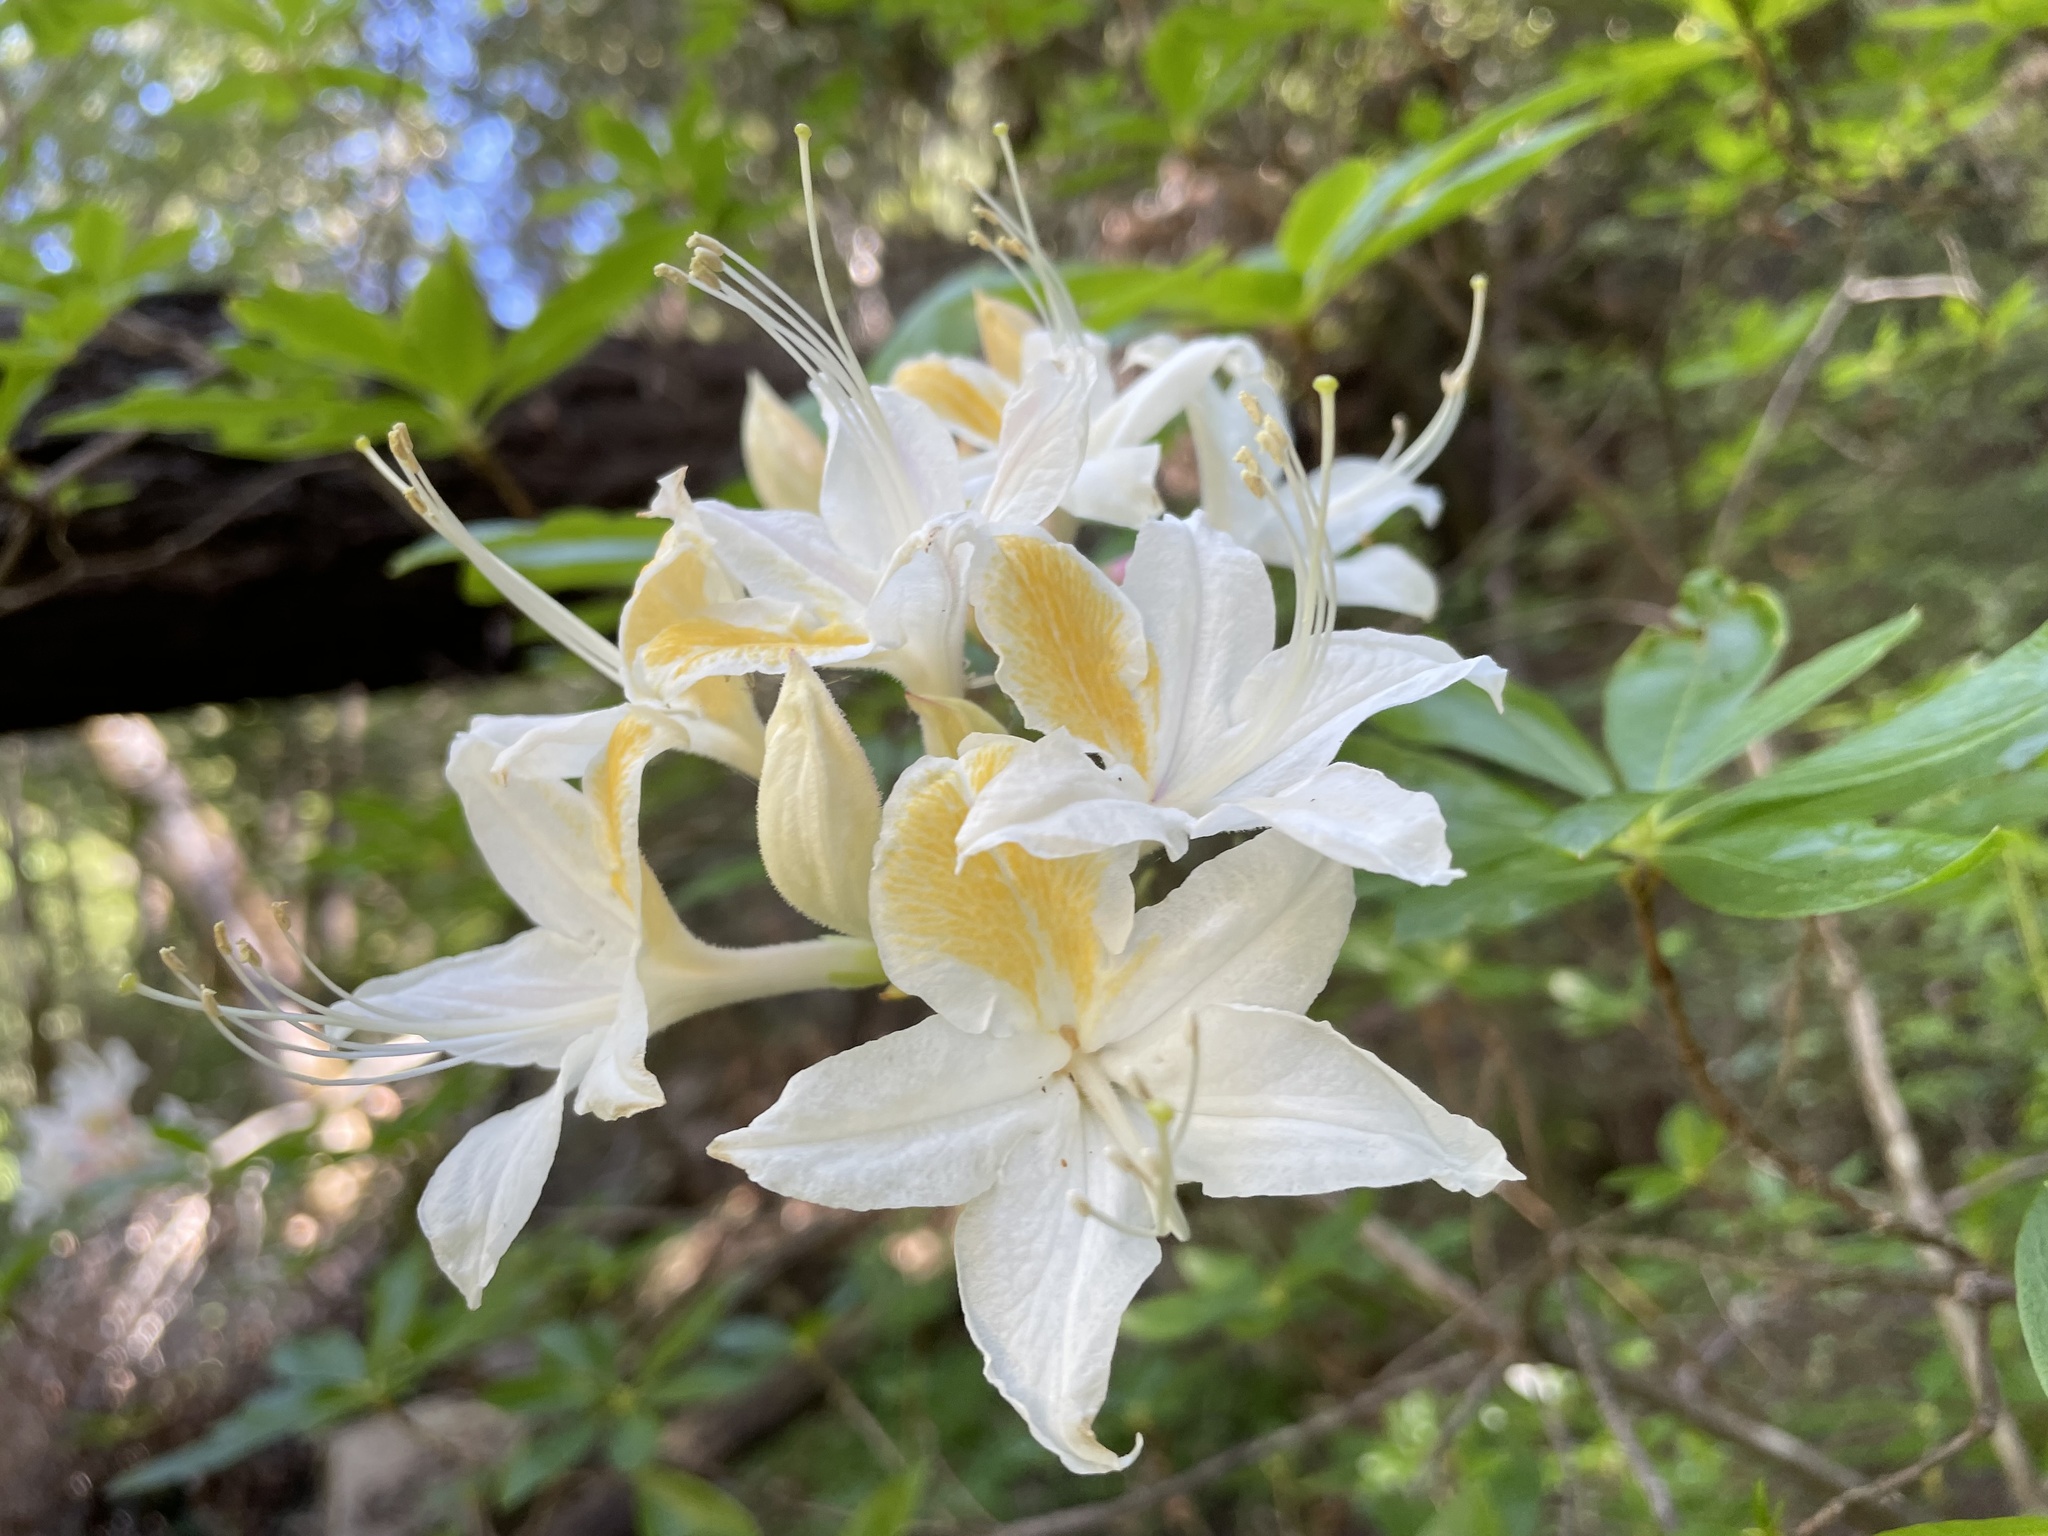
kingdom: Plantae
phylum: Tracheophyta
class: Magnoliopsida
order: Ericales
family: Ericaceae
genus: Rhododendron
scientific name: Rhododendron occidentale
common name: Western azalea
